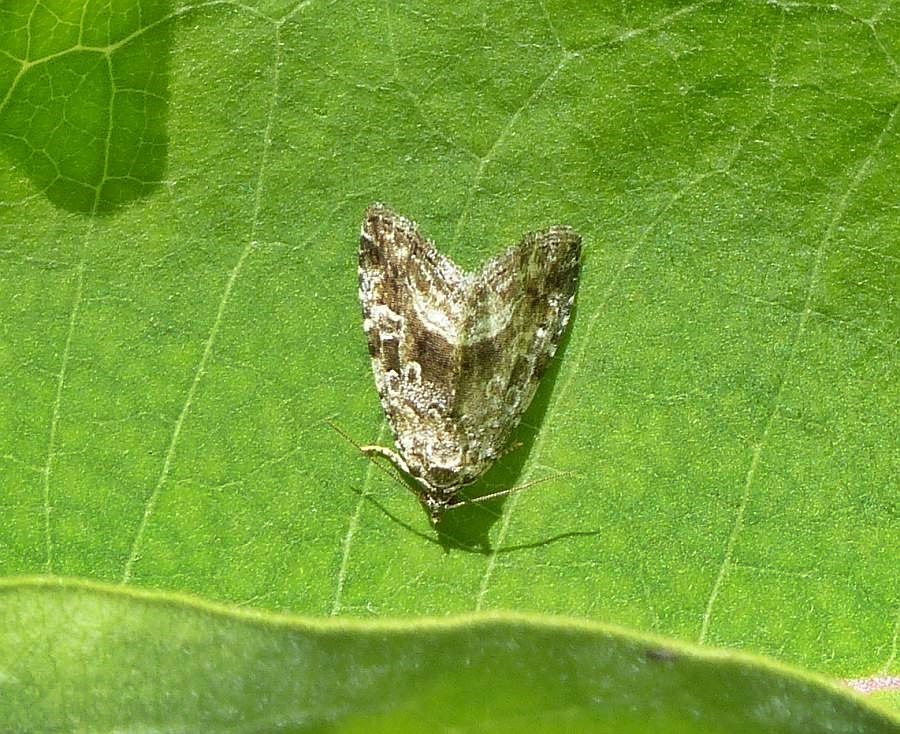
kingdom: Animalia
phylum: Arthropoda
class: Insecta
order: Lepidoptera
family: Noctuidae
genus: Protodeltote
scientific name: Protodeltote muscosula
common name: Large mossy glyph
